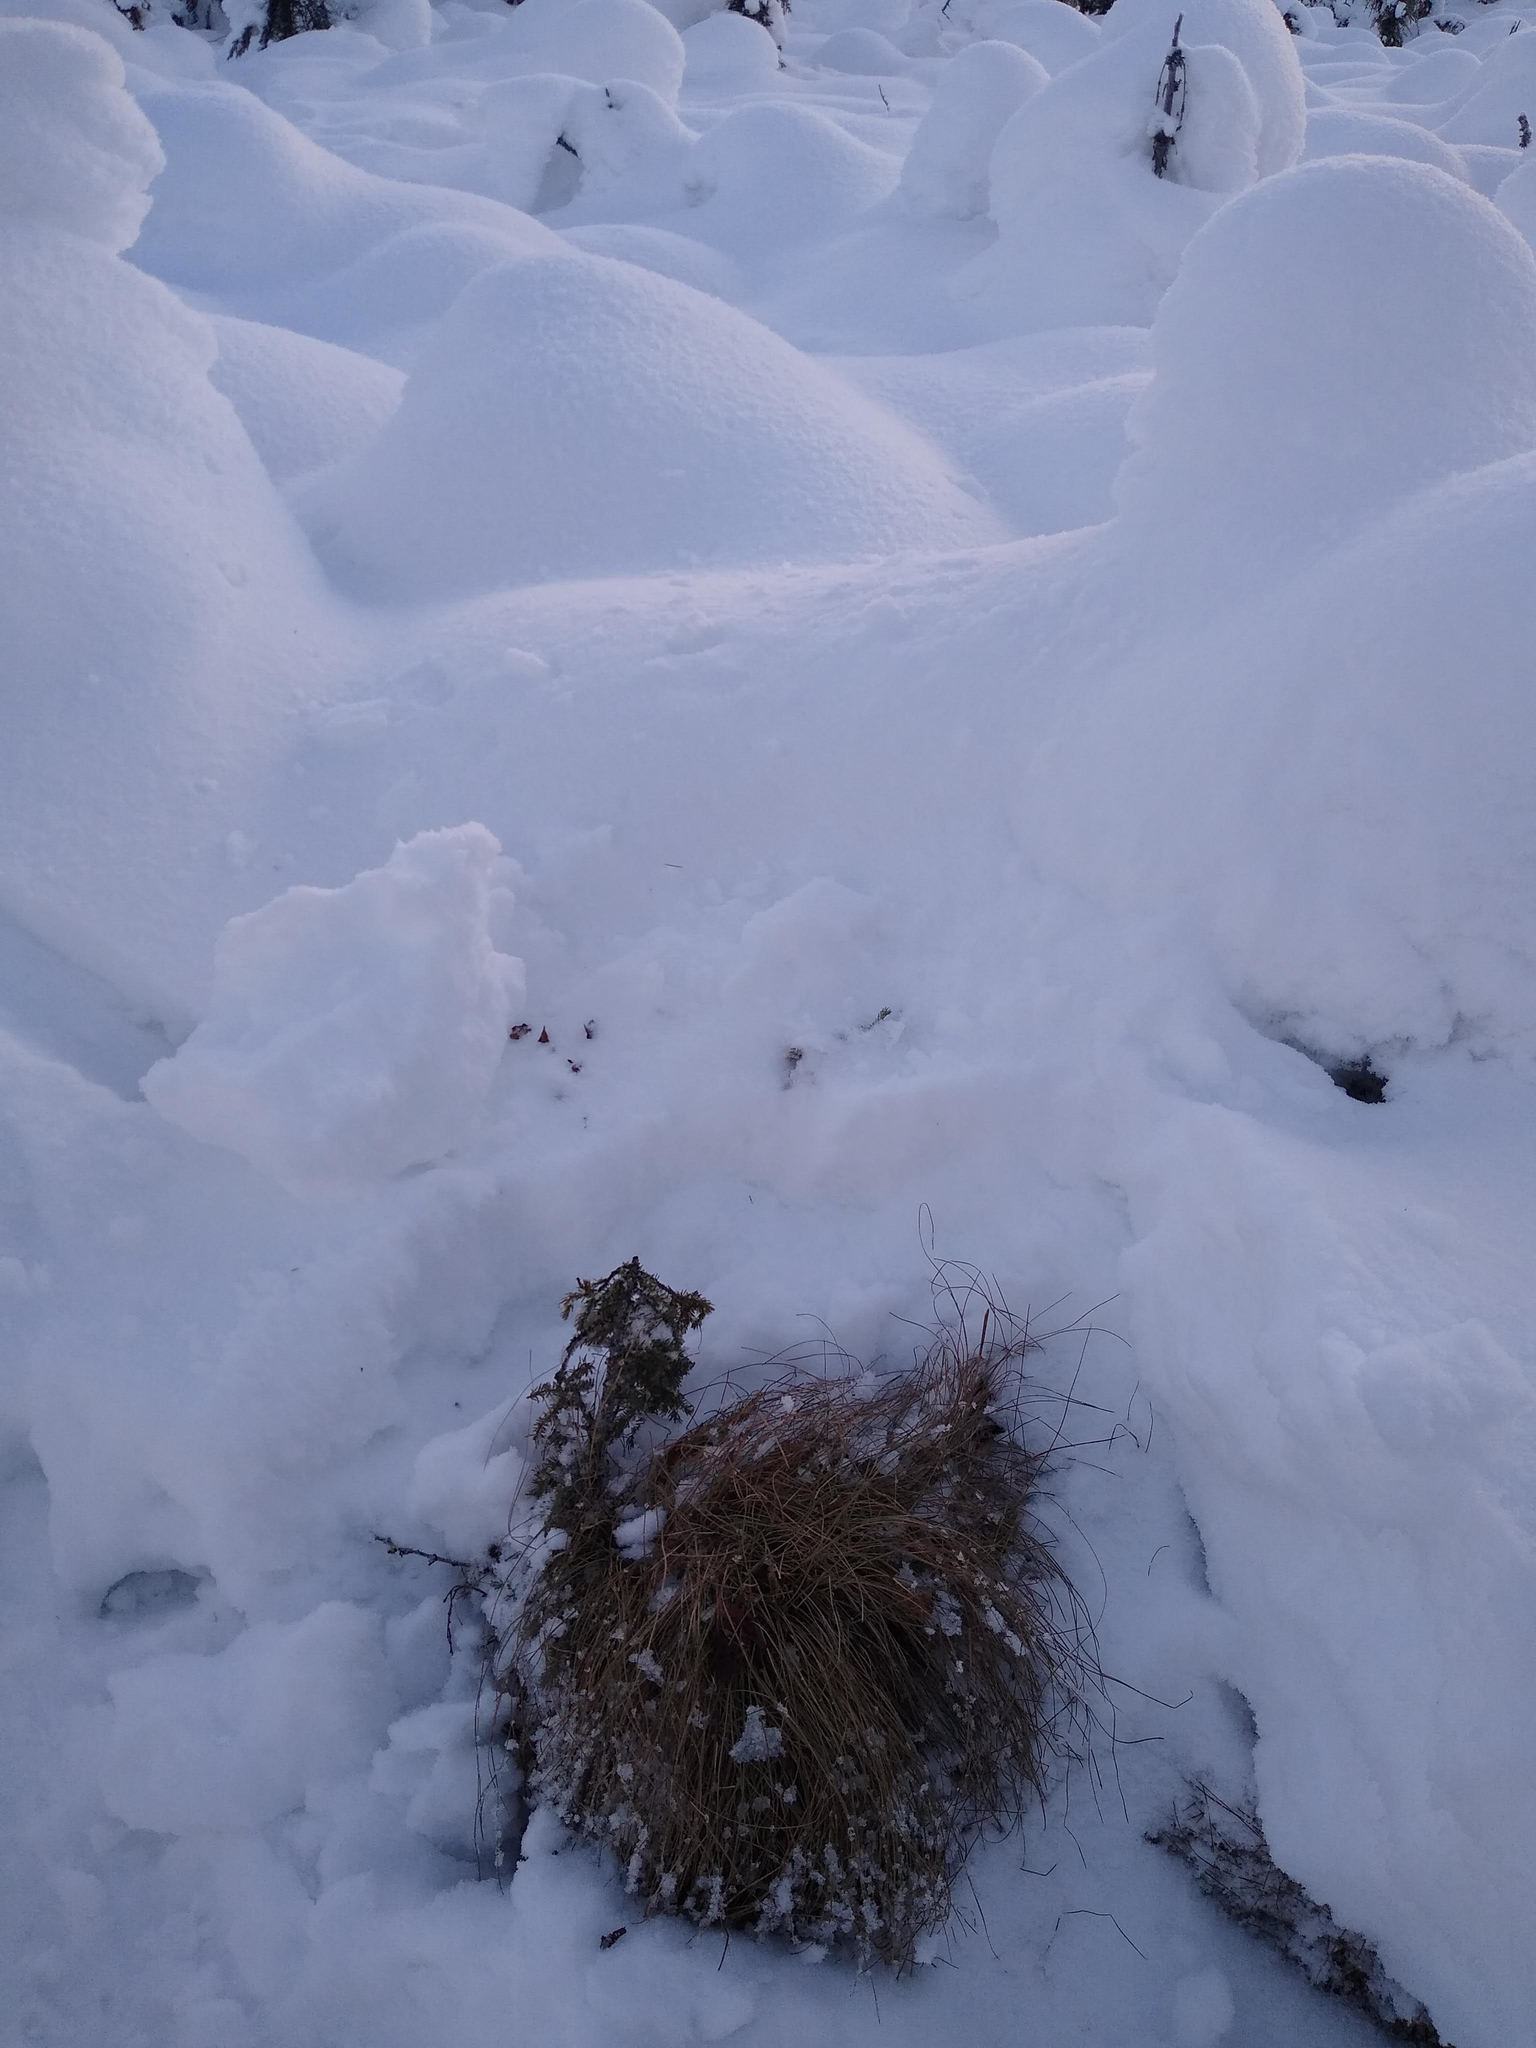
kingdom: Plantae
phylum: Tracheophyta
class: Liliopsida
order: Poales
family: Cyperaceae
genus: Eriophorum
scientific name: Eriophorum vaginatum
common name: Hare's-tail cottongrass
